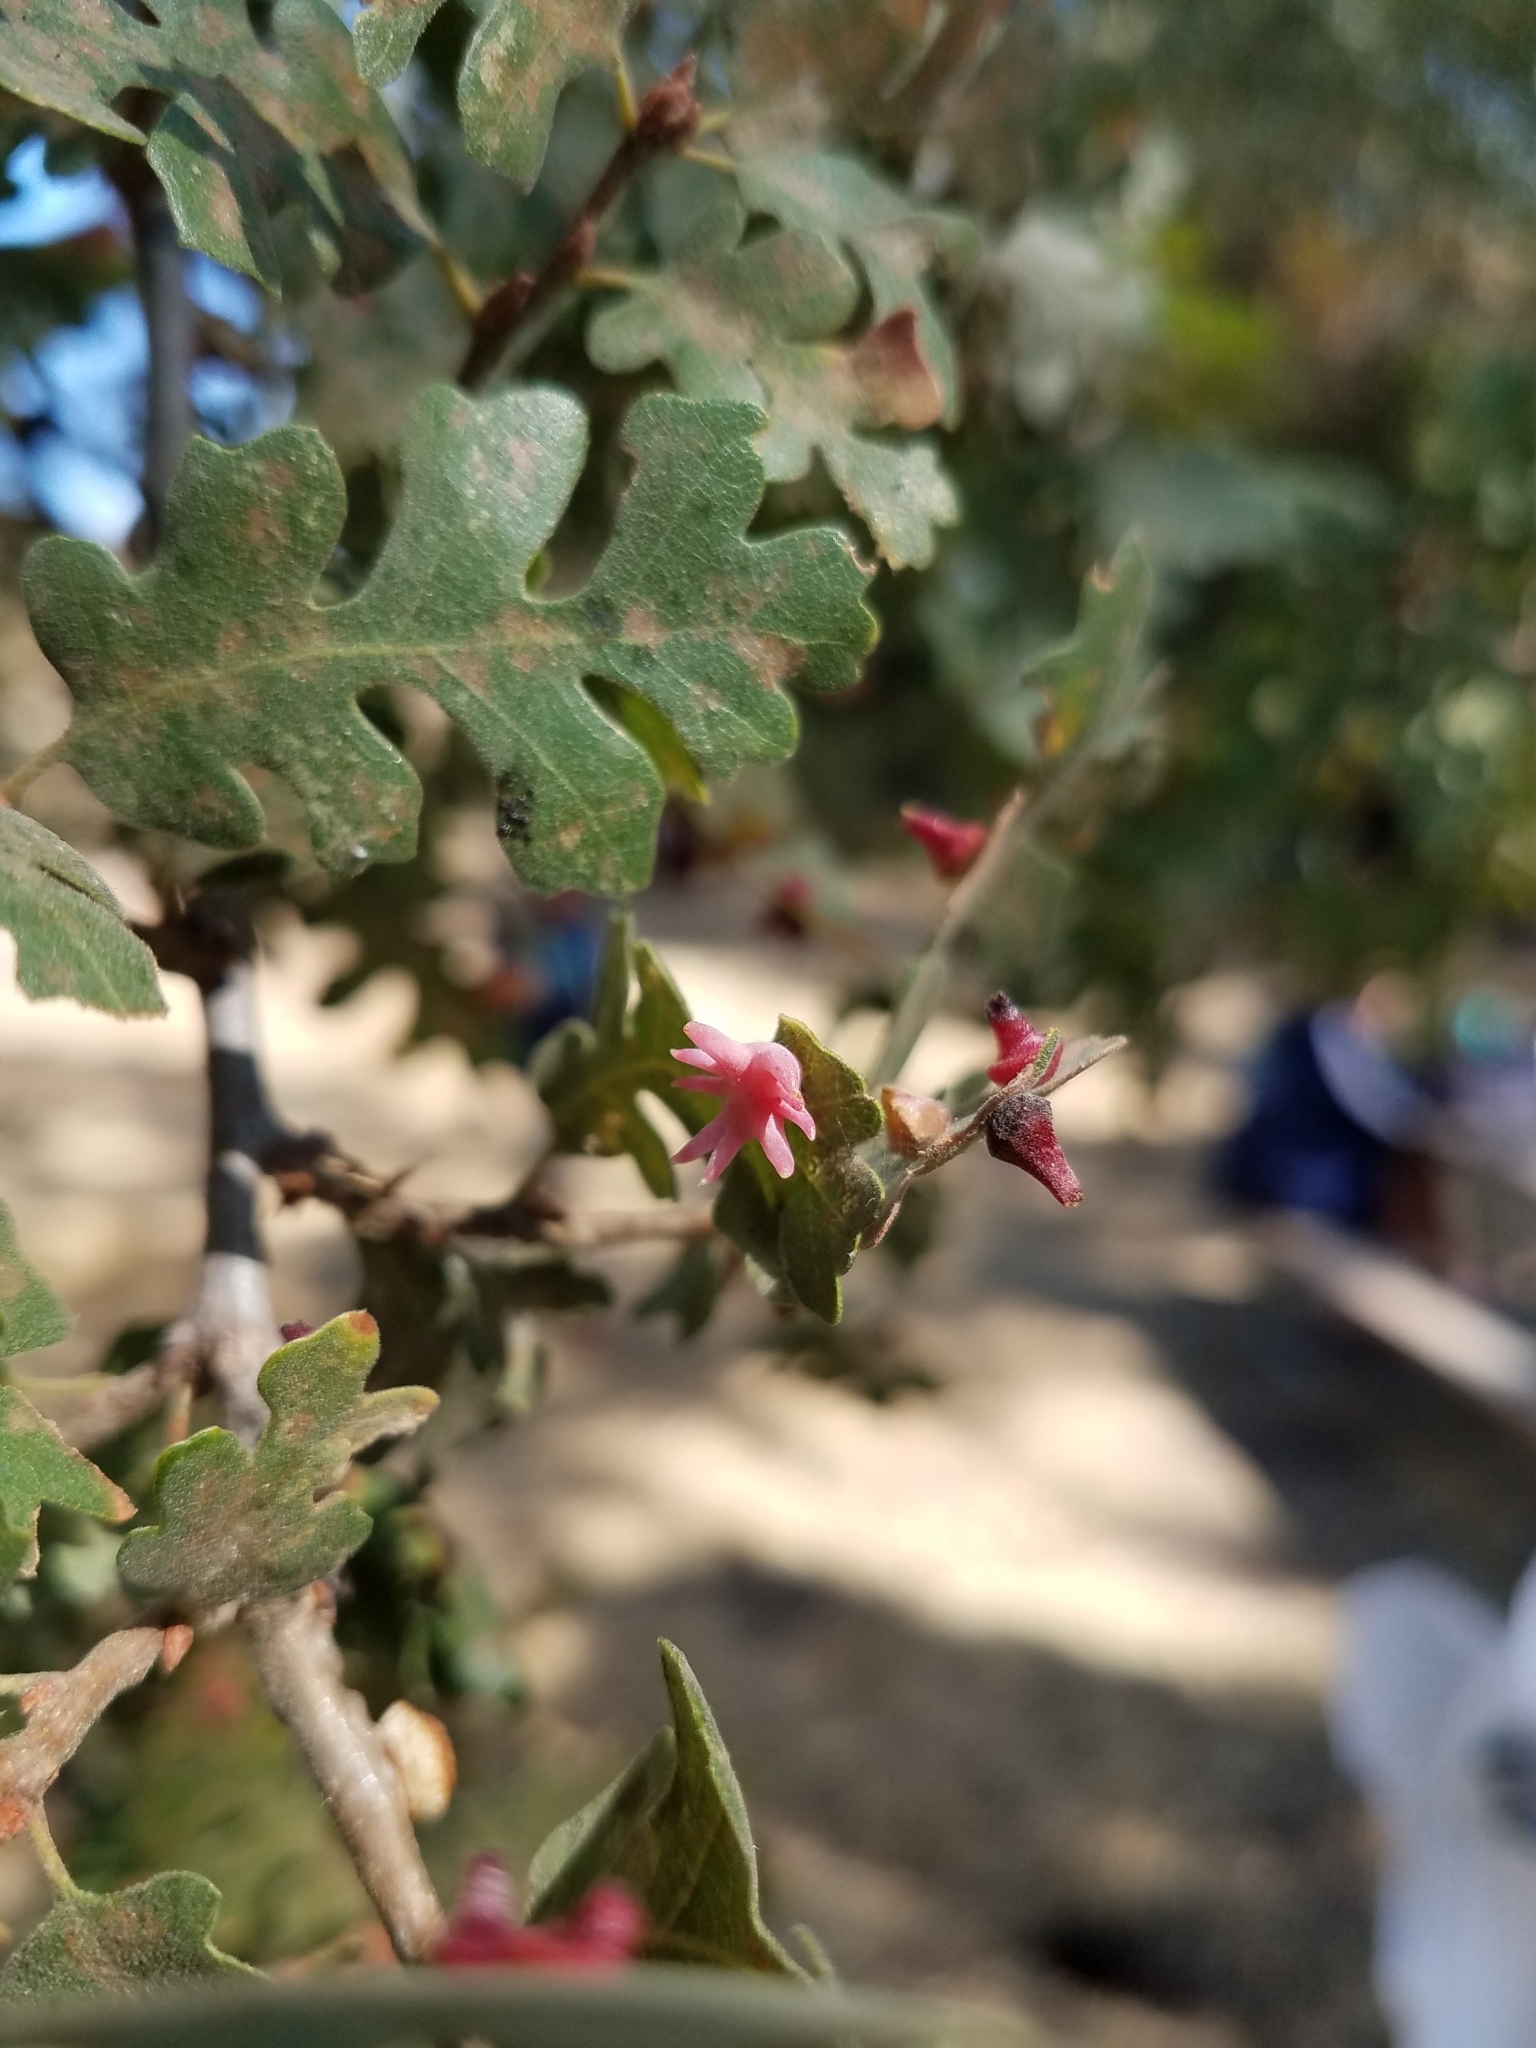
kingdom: Animalia
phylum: Arthropoda
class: Insecta
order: Hymenoptera
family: Cynipidae
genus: Cynips
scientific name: Cynips douglasi
